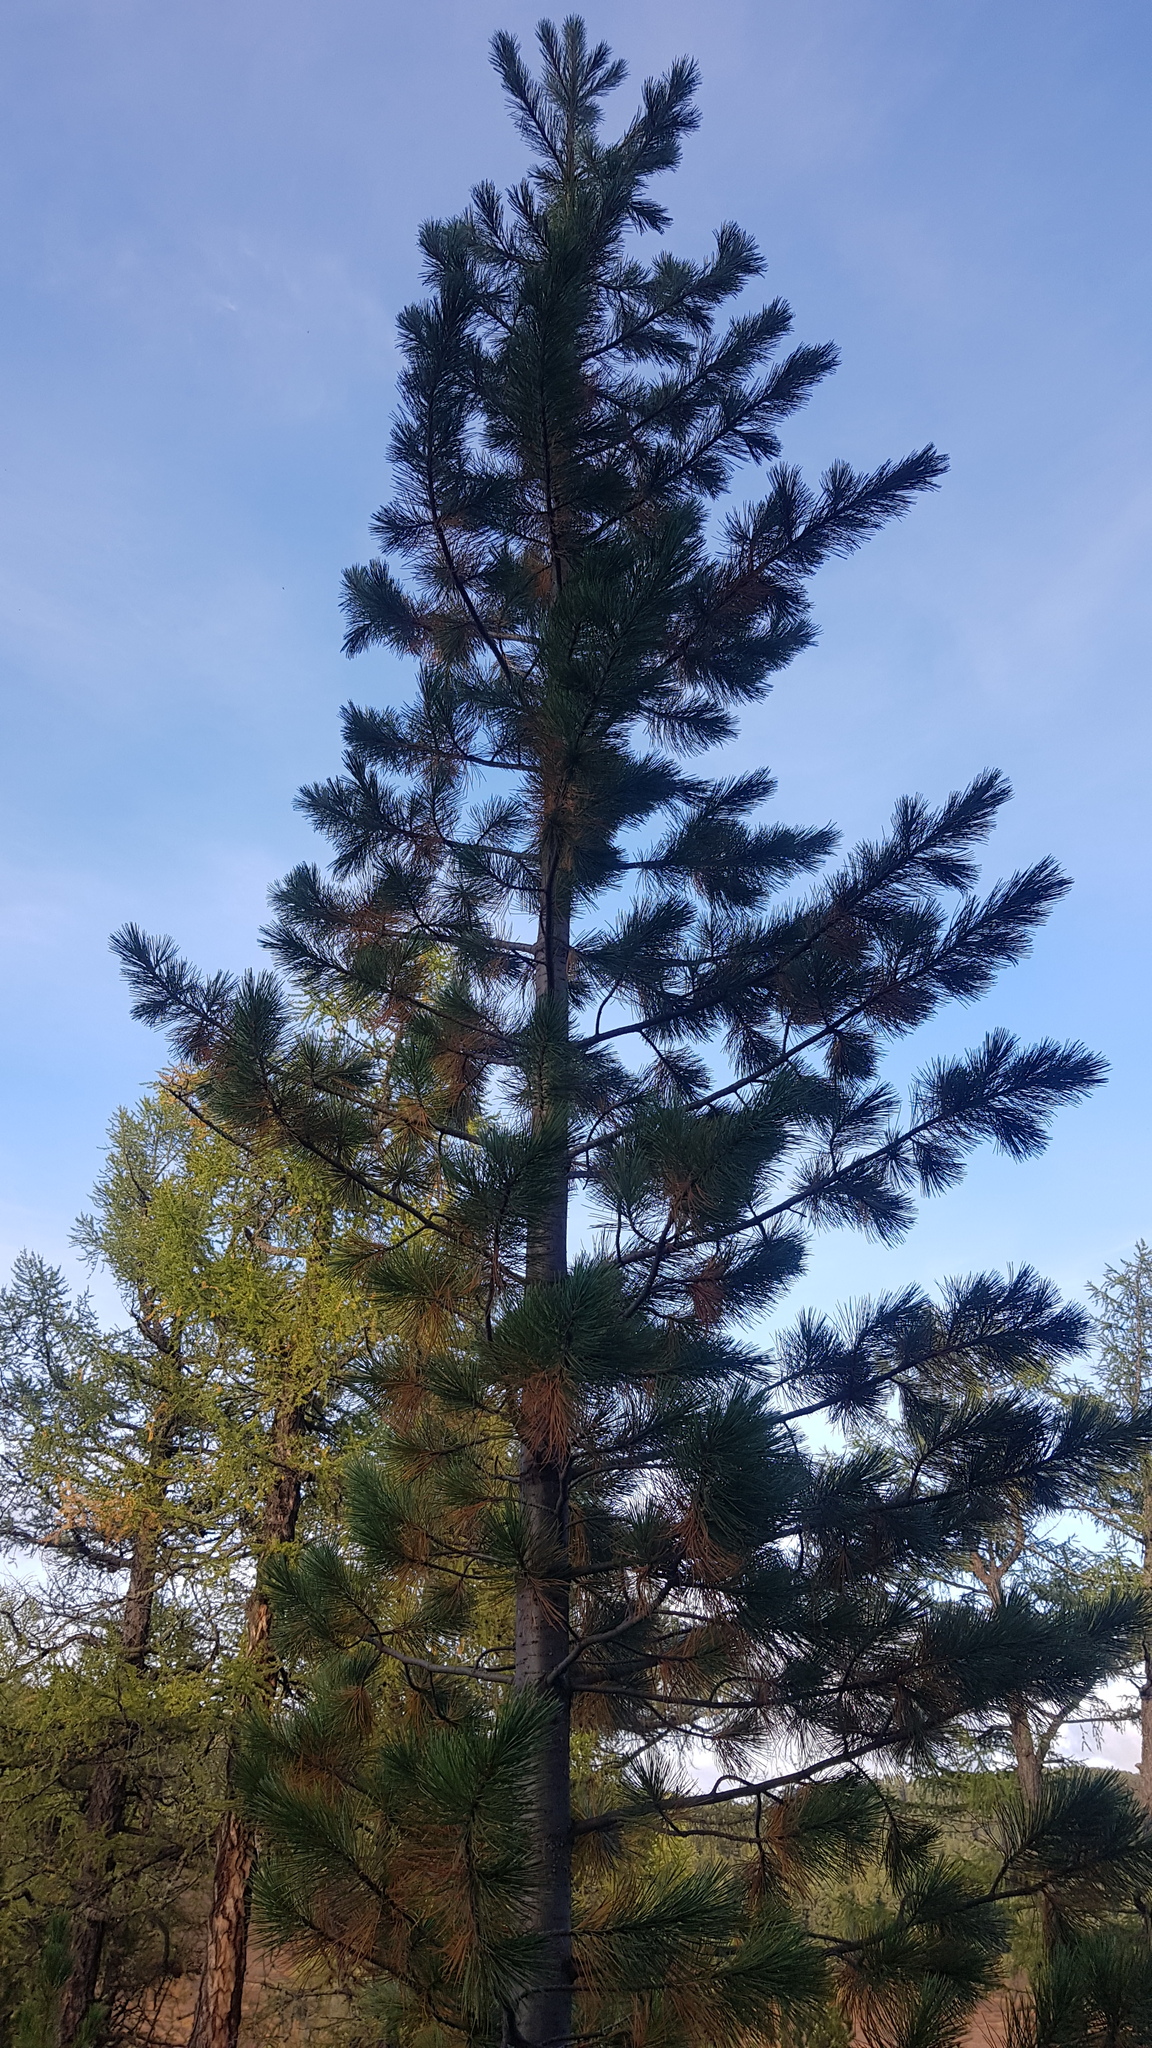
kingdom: Plantae
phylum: Tracheophyta
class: Pinopsida
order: Pinales
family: Pinaceae
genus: Pinus
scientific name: Pinus sibirica
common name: Siberian pine
